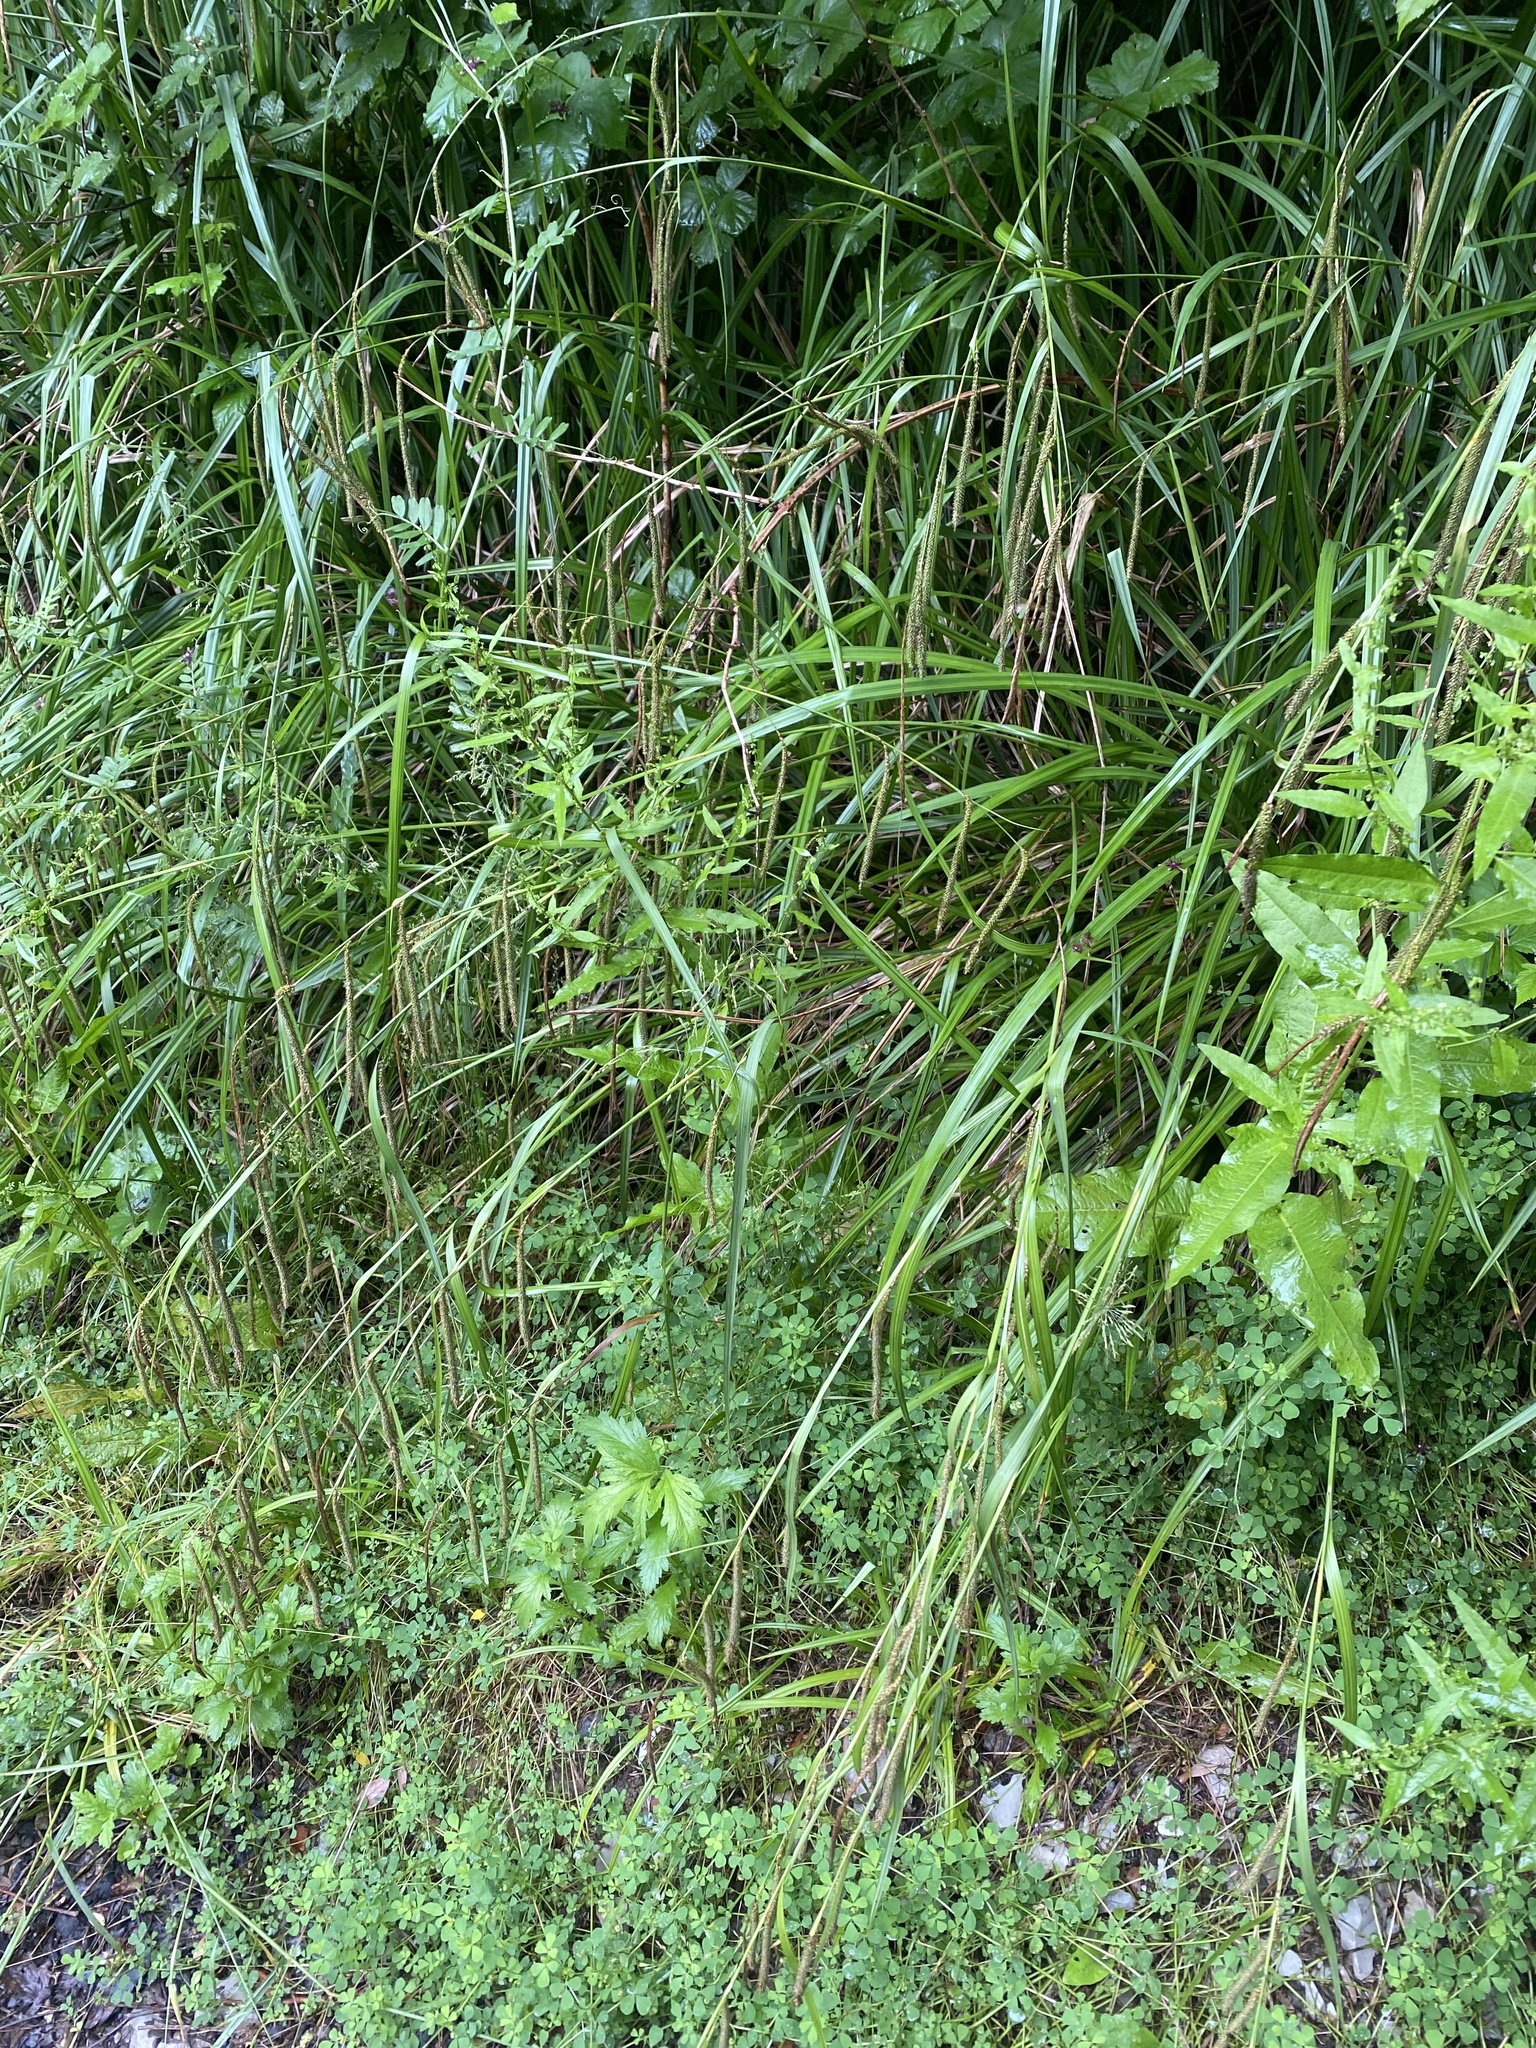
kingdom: Plantae
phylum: Tracheophyta
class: Liliopsida
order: Poales
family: Cyperaceae
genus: Carex
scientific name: Carex pendula
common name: Pendulous sedge
